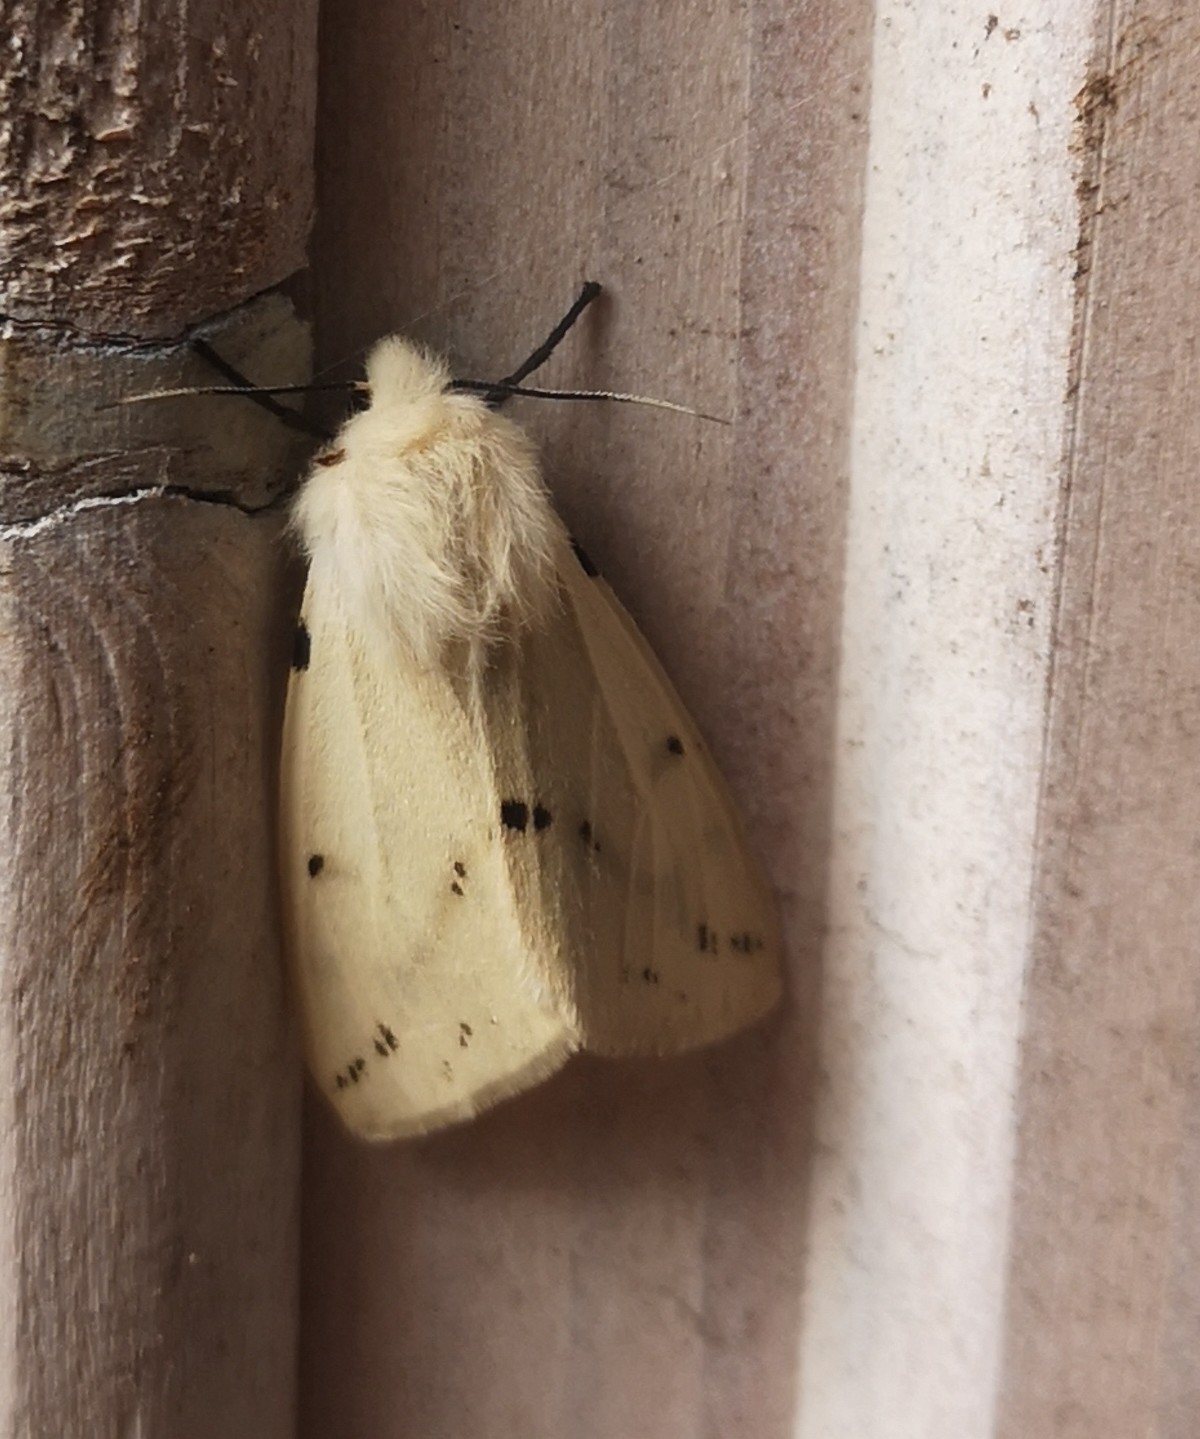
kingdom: Animalia
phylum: Arthropoda
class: Insecta
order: Lepidoptera
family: Erebidae
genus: Spilarctia
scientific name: Spilarctia lutea
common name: Buff ermine
